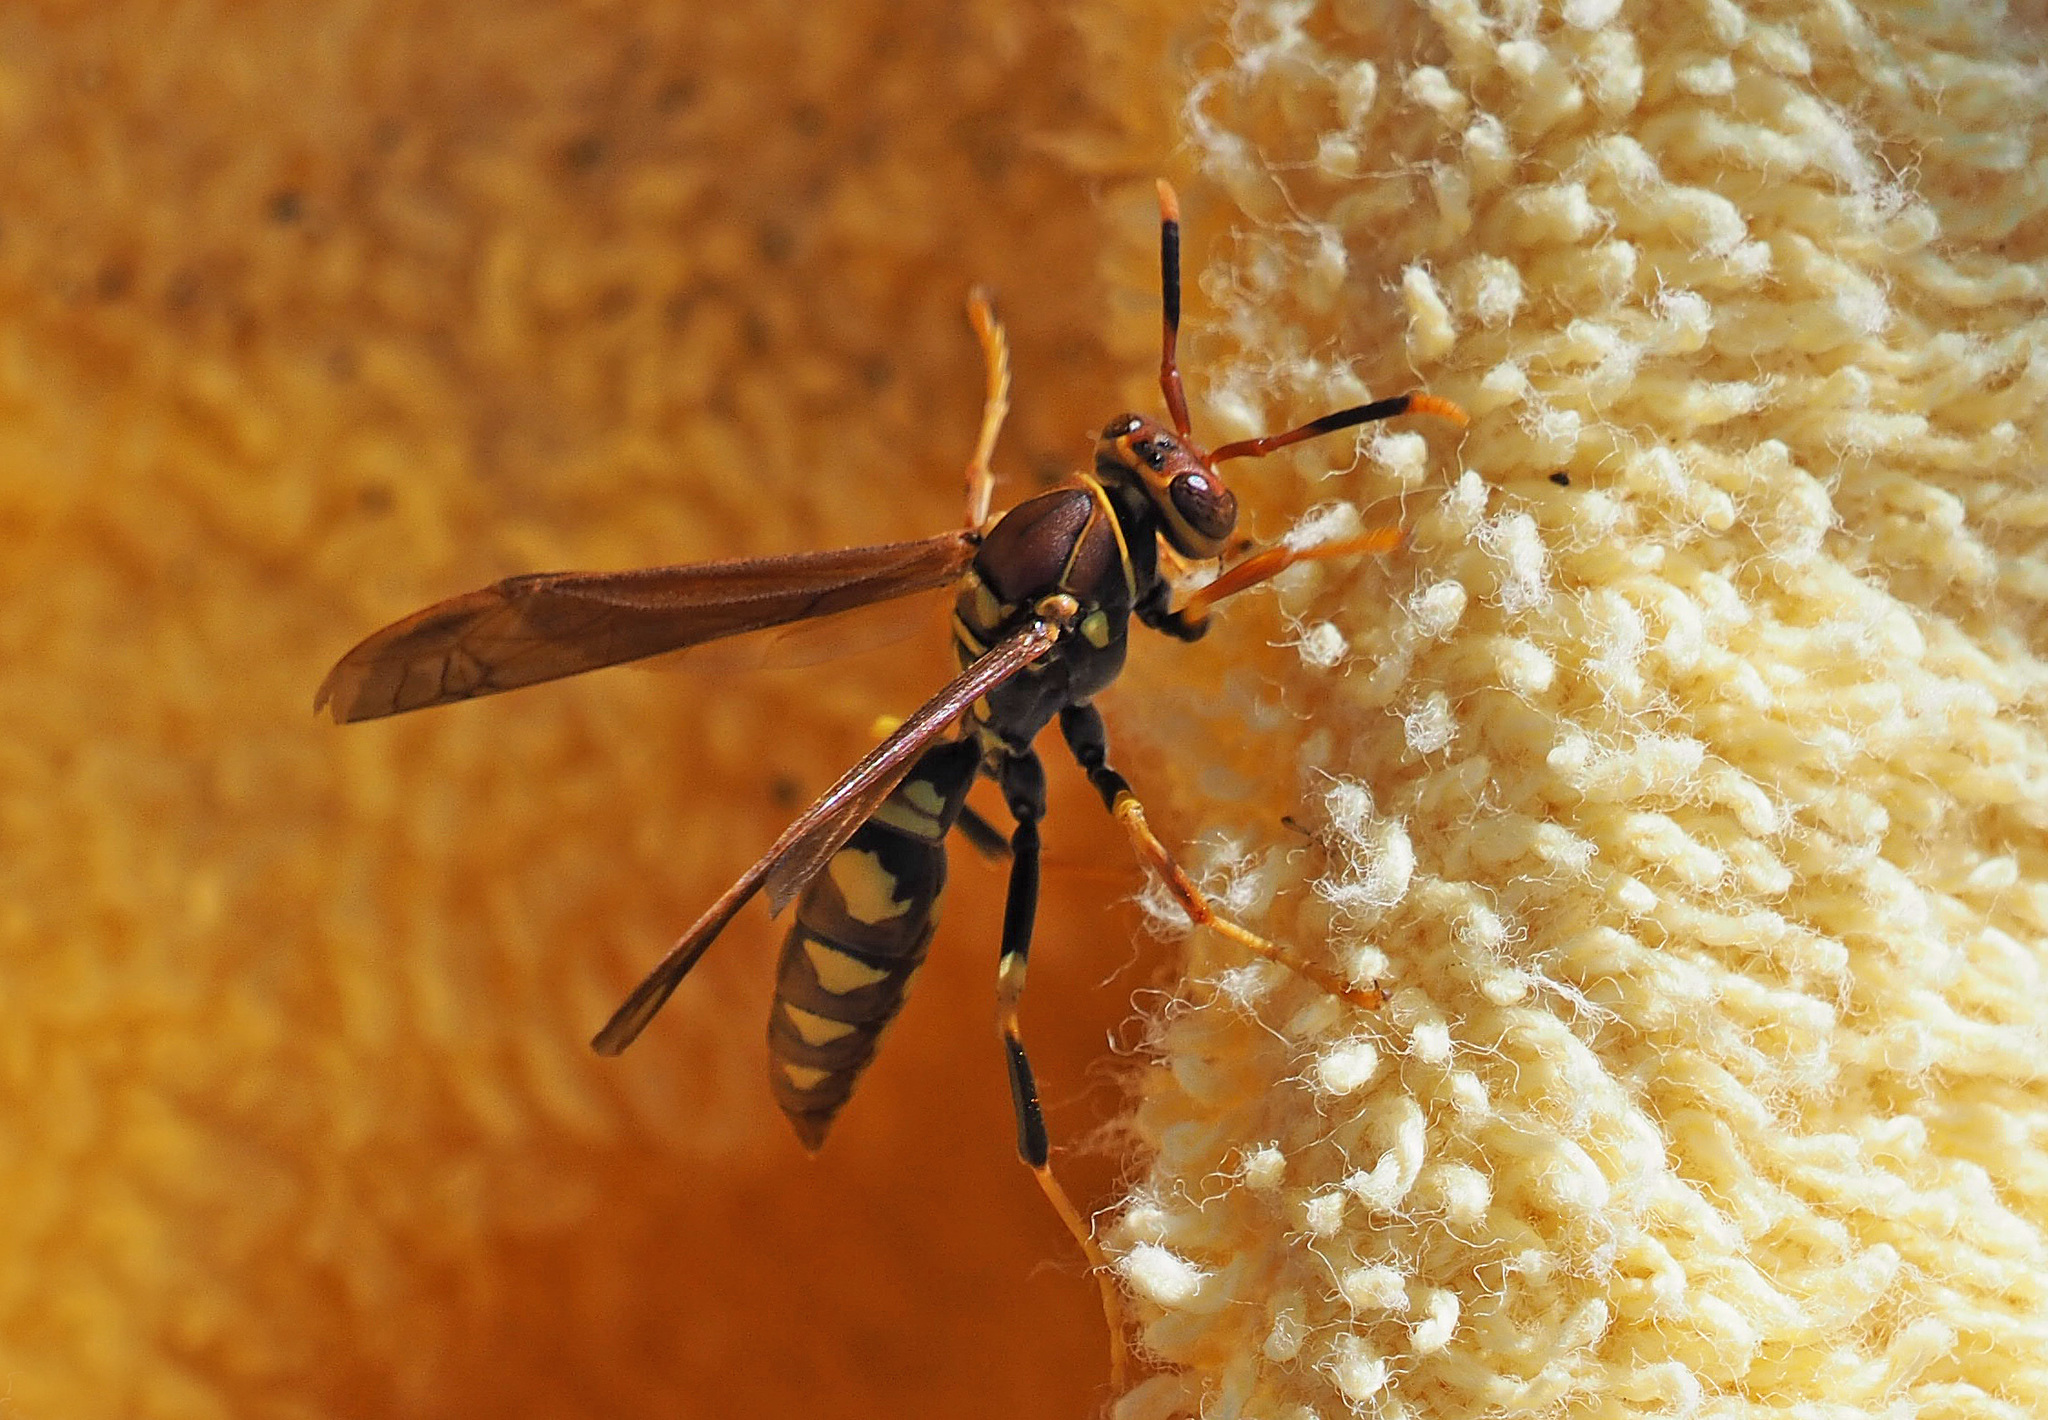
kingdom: Animalia
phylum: Arthropoda
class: Insecta
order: Hymenoptera
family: Eumenidae
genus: Polistes
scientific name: Polistes versicolor
